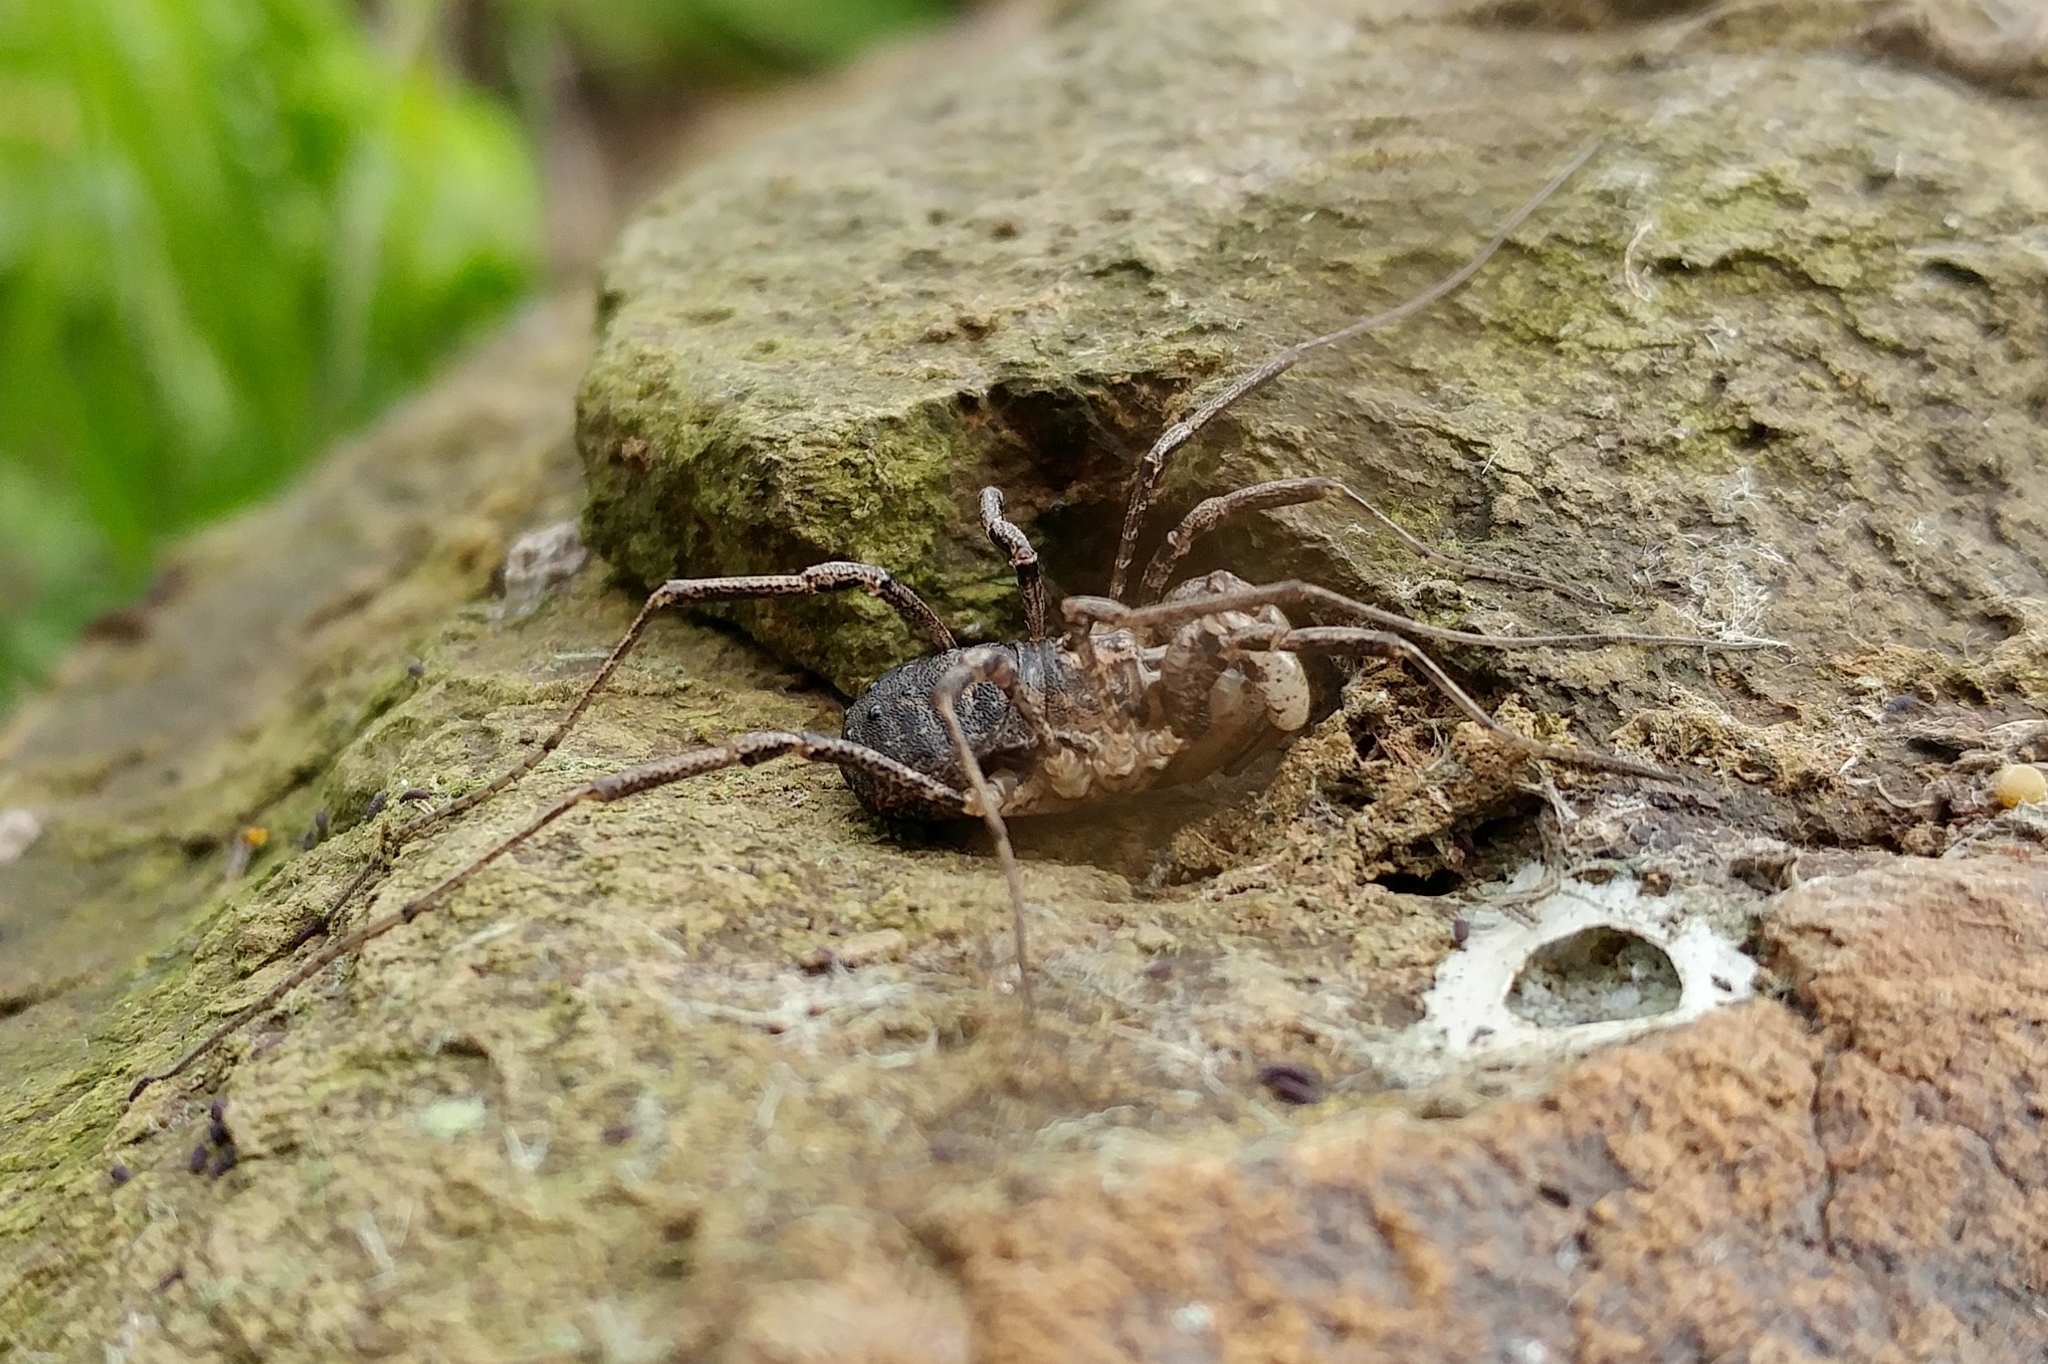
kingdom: Animalia
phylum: Arthropoda
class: Arachnida
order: Opiliones
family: Protolophidae
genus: Protolophus
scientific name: Protolophus cockerelli
